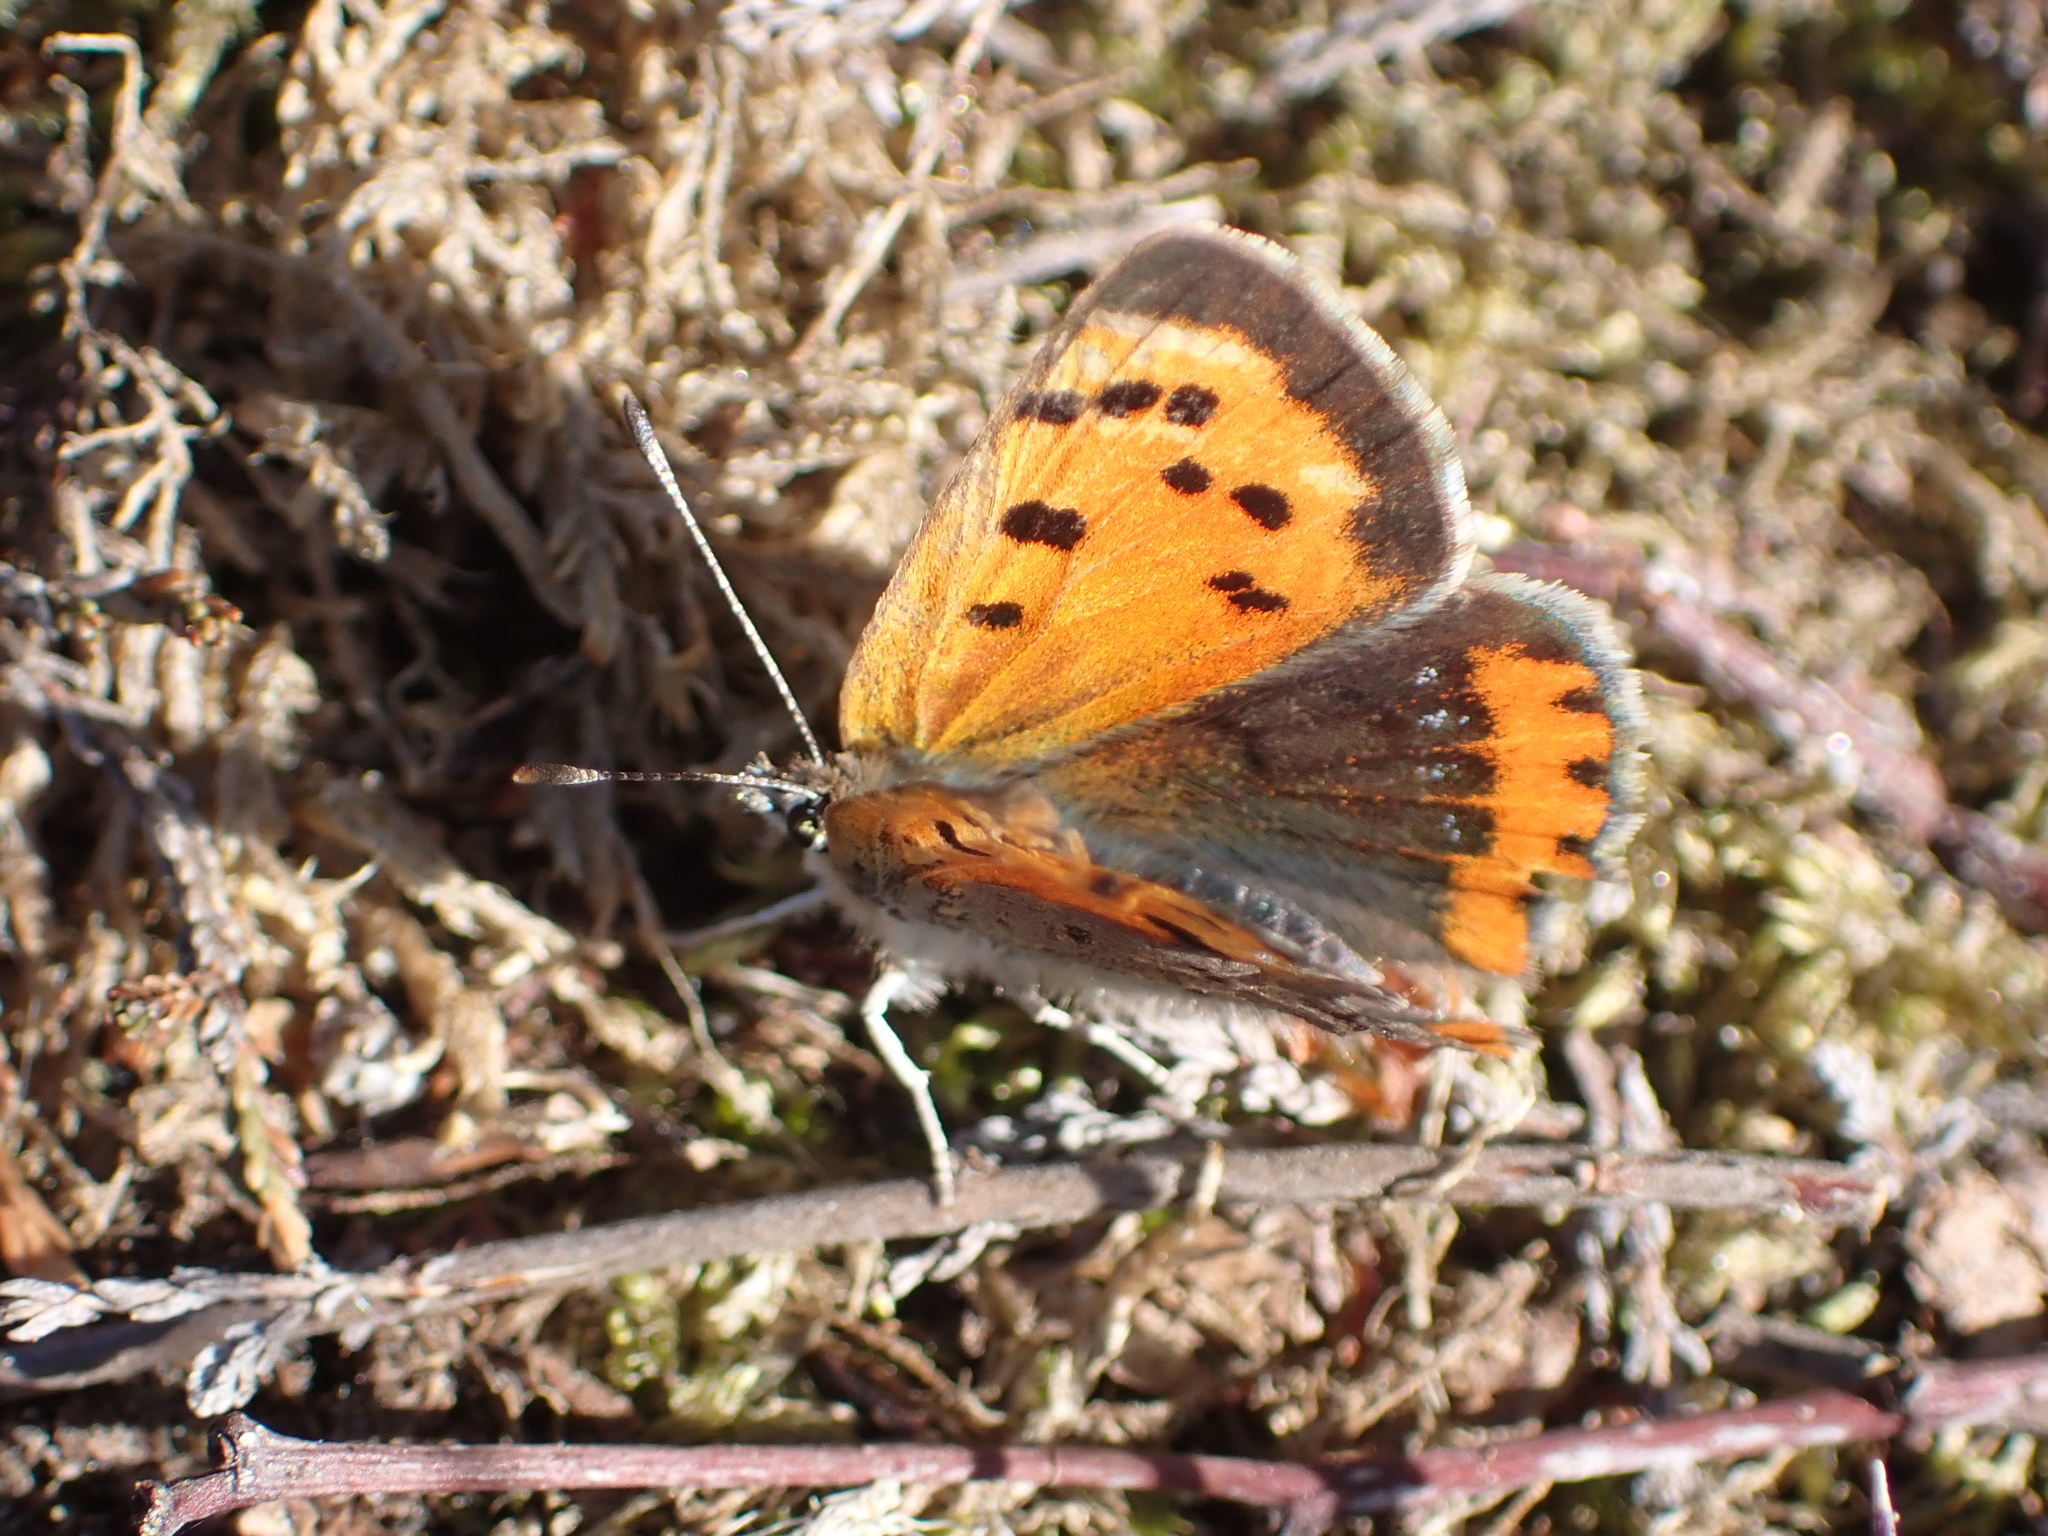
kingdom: Animalia
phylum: Arthropoda
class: Insecta
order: Lepidoptera
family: Lycaenidae
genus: Lycaena
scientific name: Lycaena phlaeas
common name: Small copper
